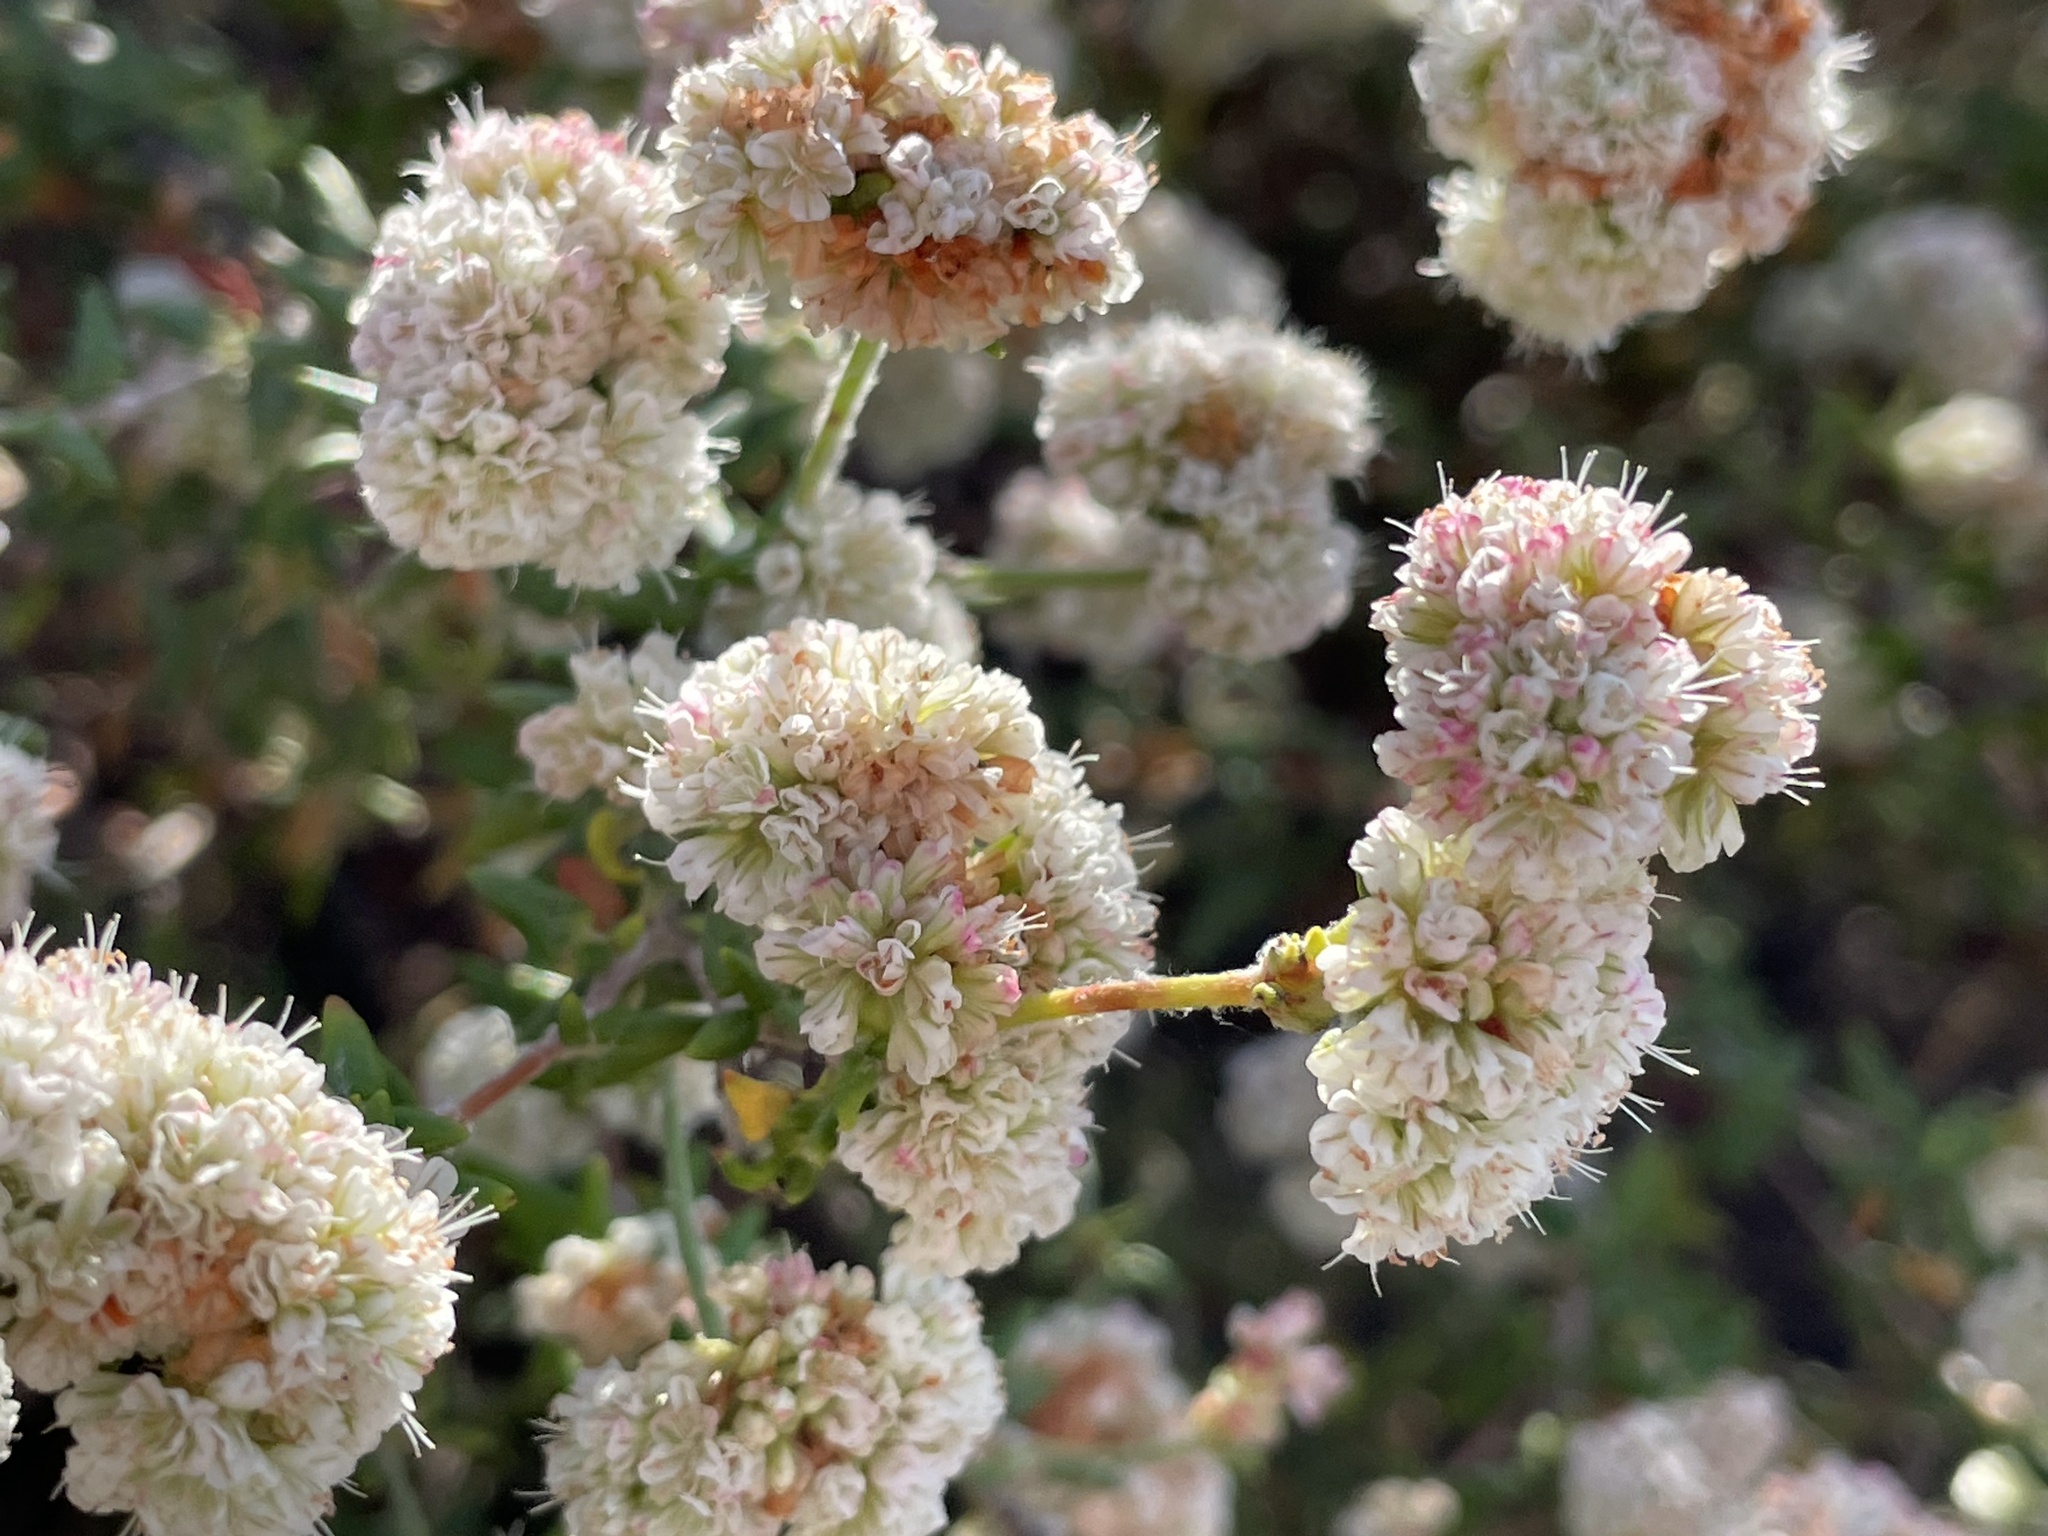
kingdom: Plantae
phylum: Tracheophyta
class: Magnoliopsida
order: Caryophyllales
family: Polygonaceae
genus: Eriogonum
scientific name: Eriogonum parvifolium
